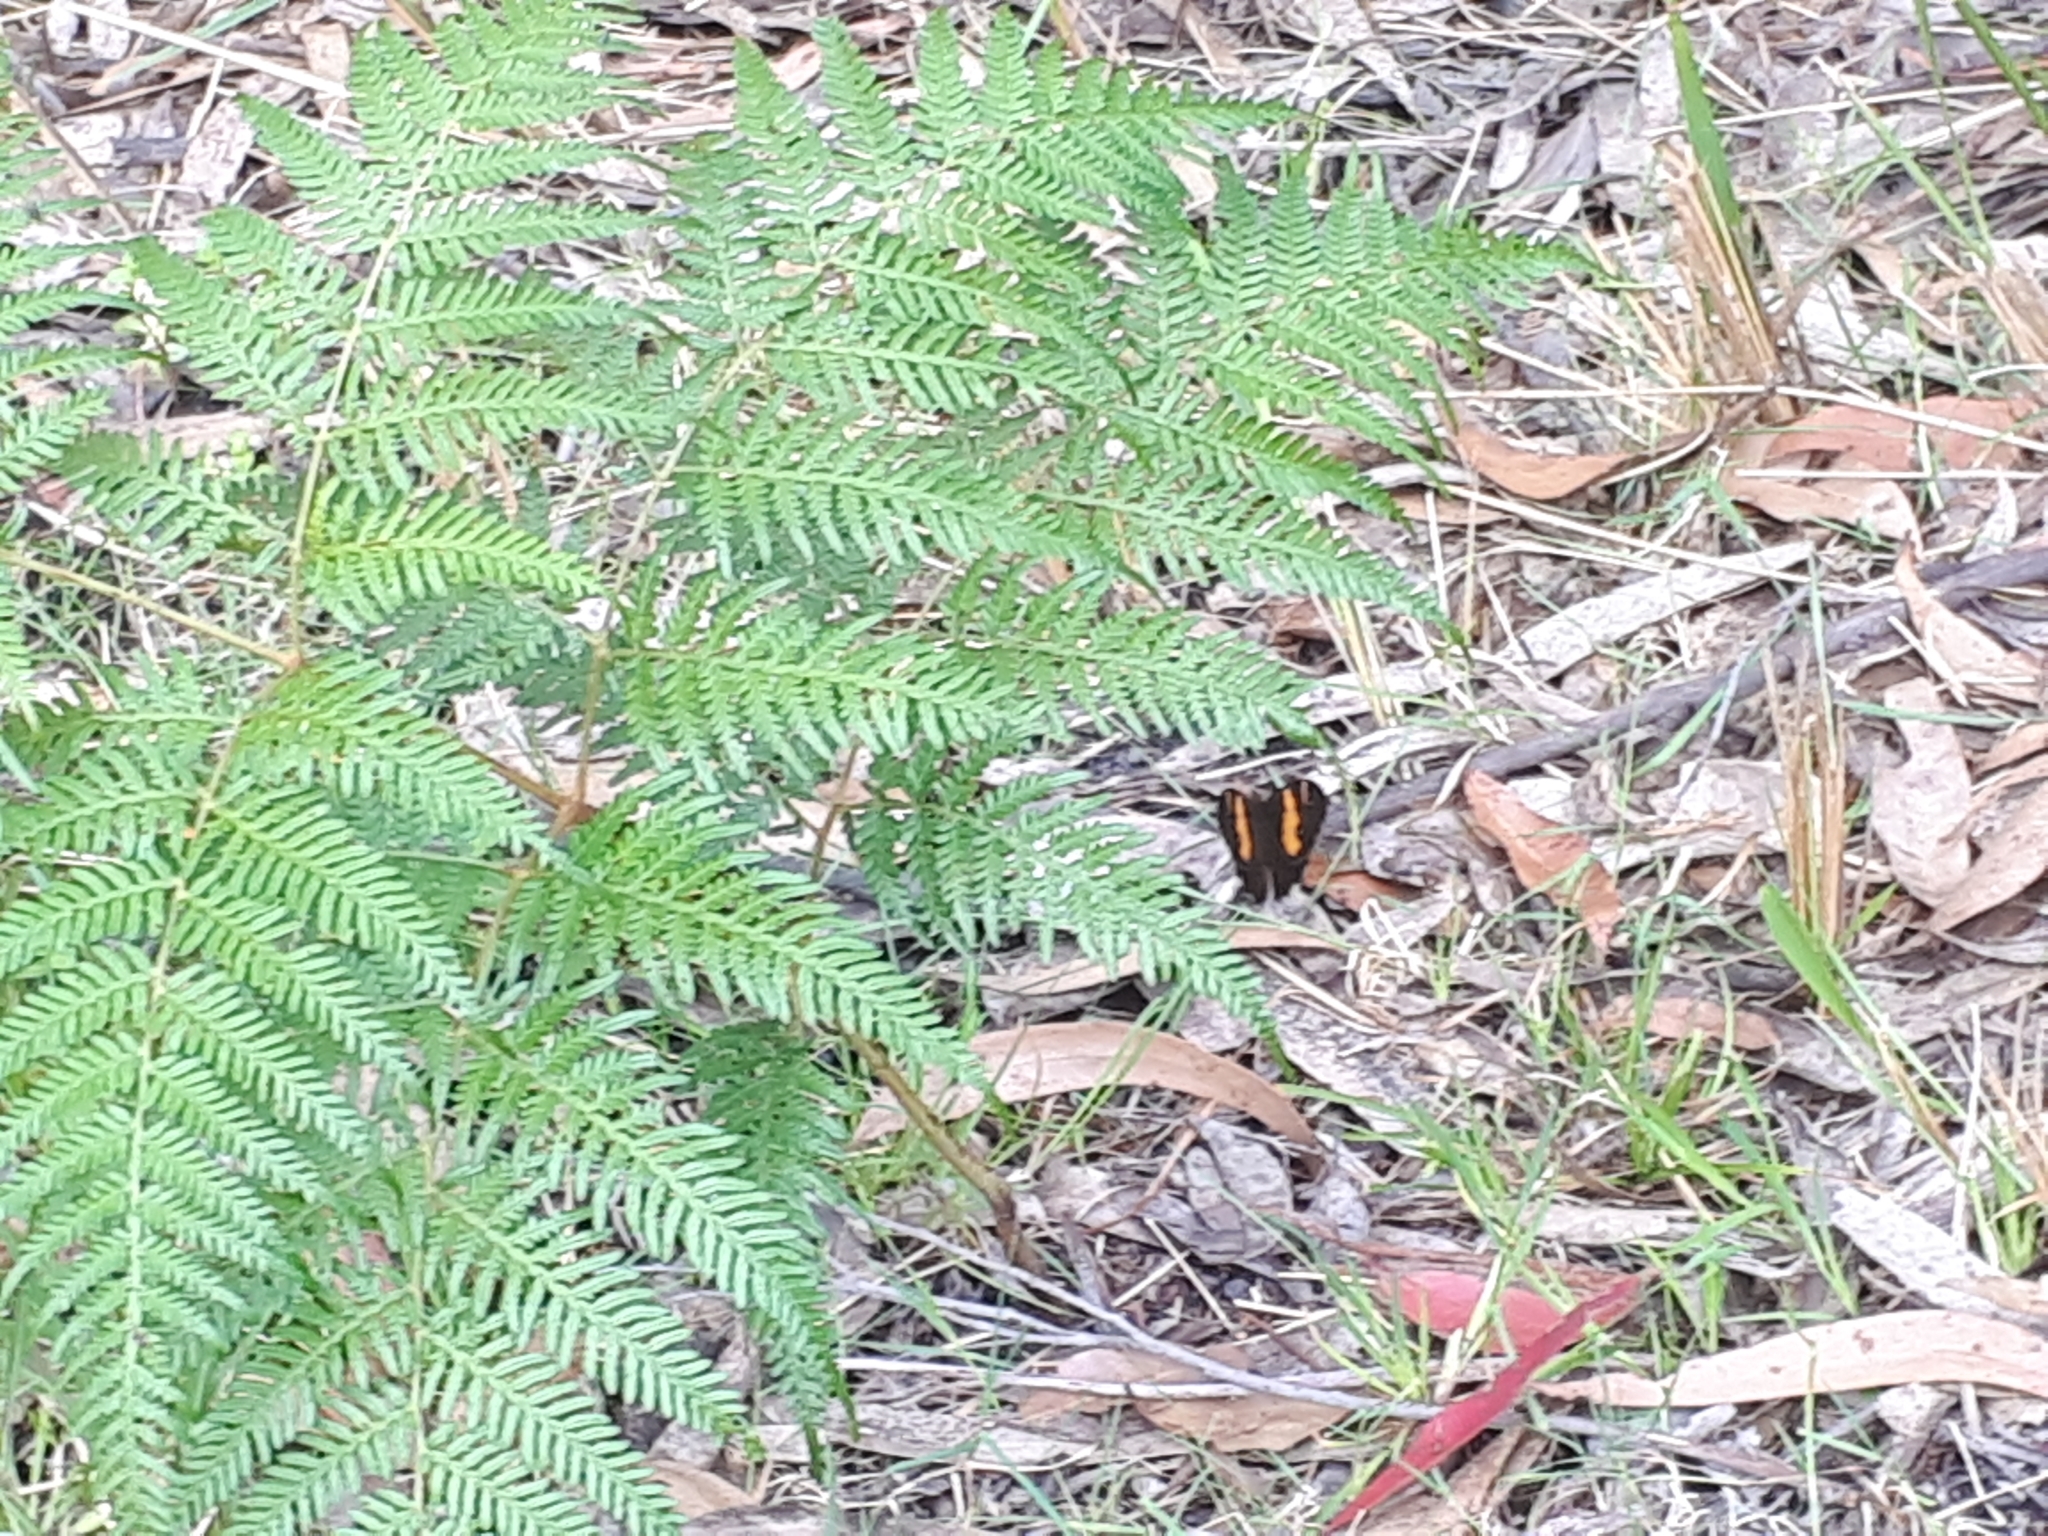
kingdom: Animalia
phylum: Arthropoda
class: Insecta
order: Lepidoptera
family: Nymphalidae
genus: Tisiphone
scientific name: Tisiphone abeona
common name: Swordgrass brown
